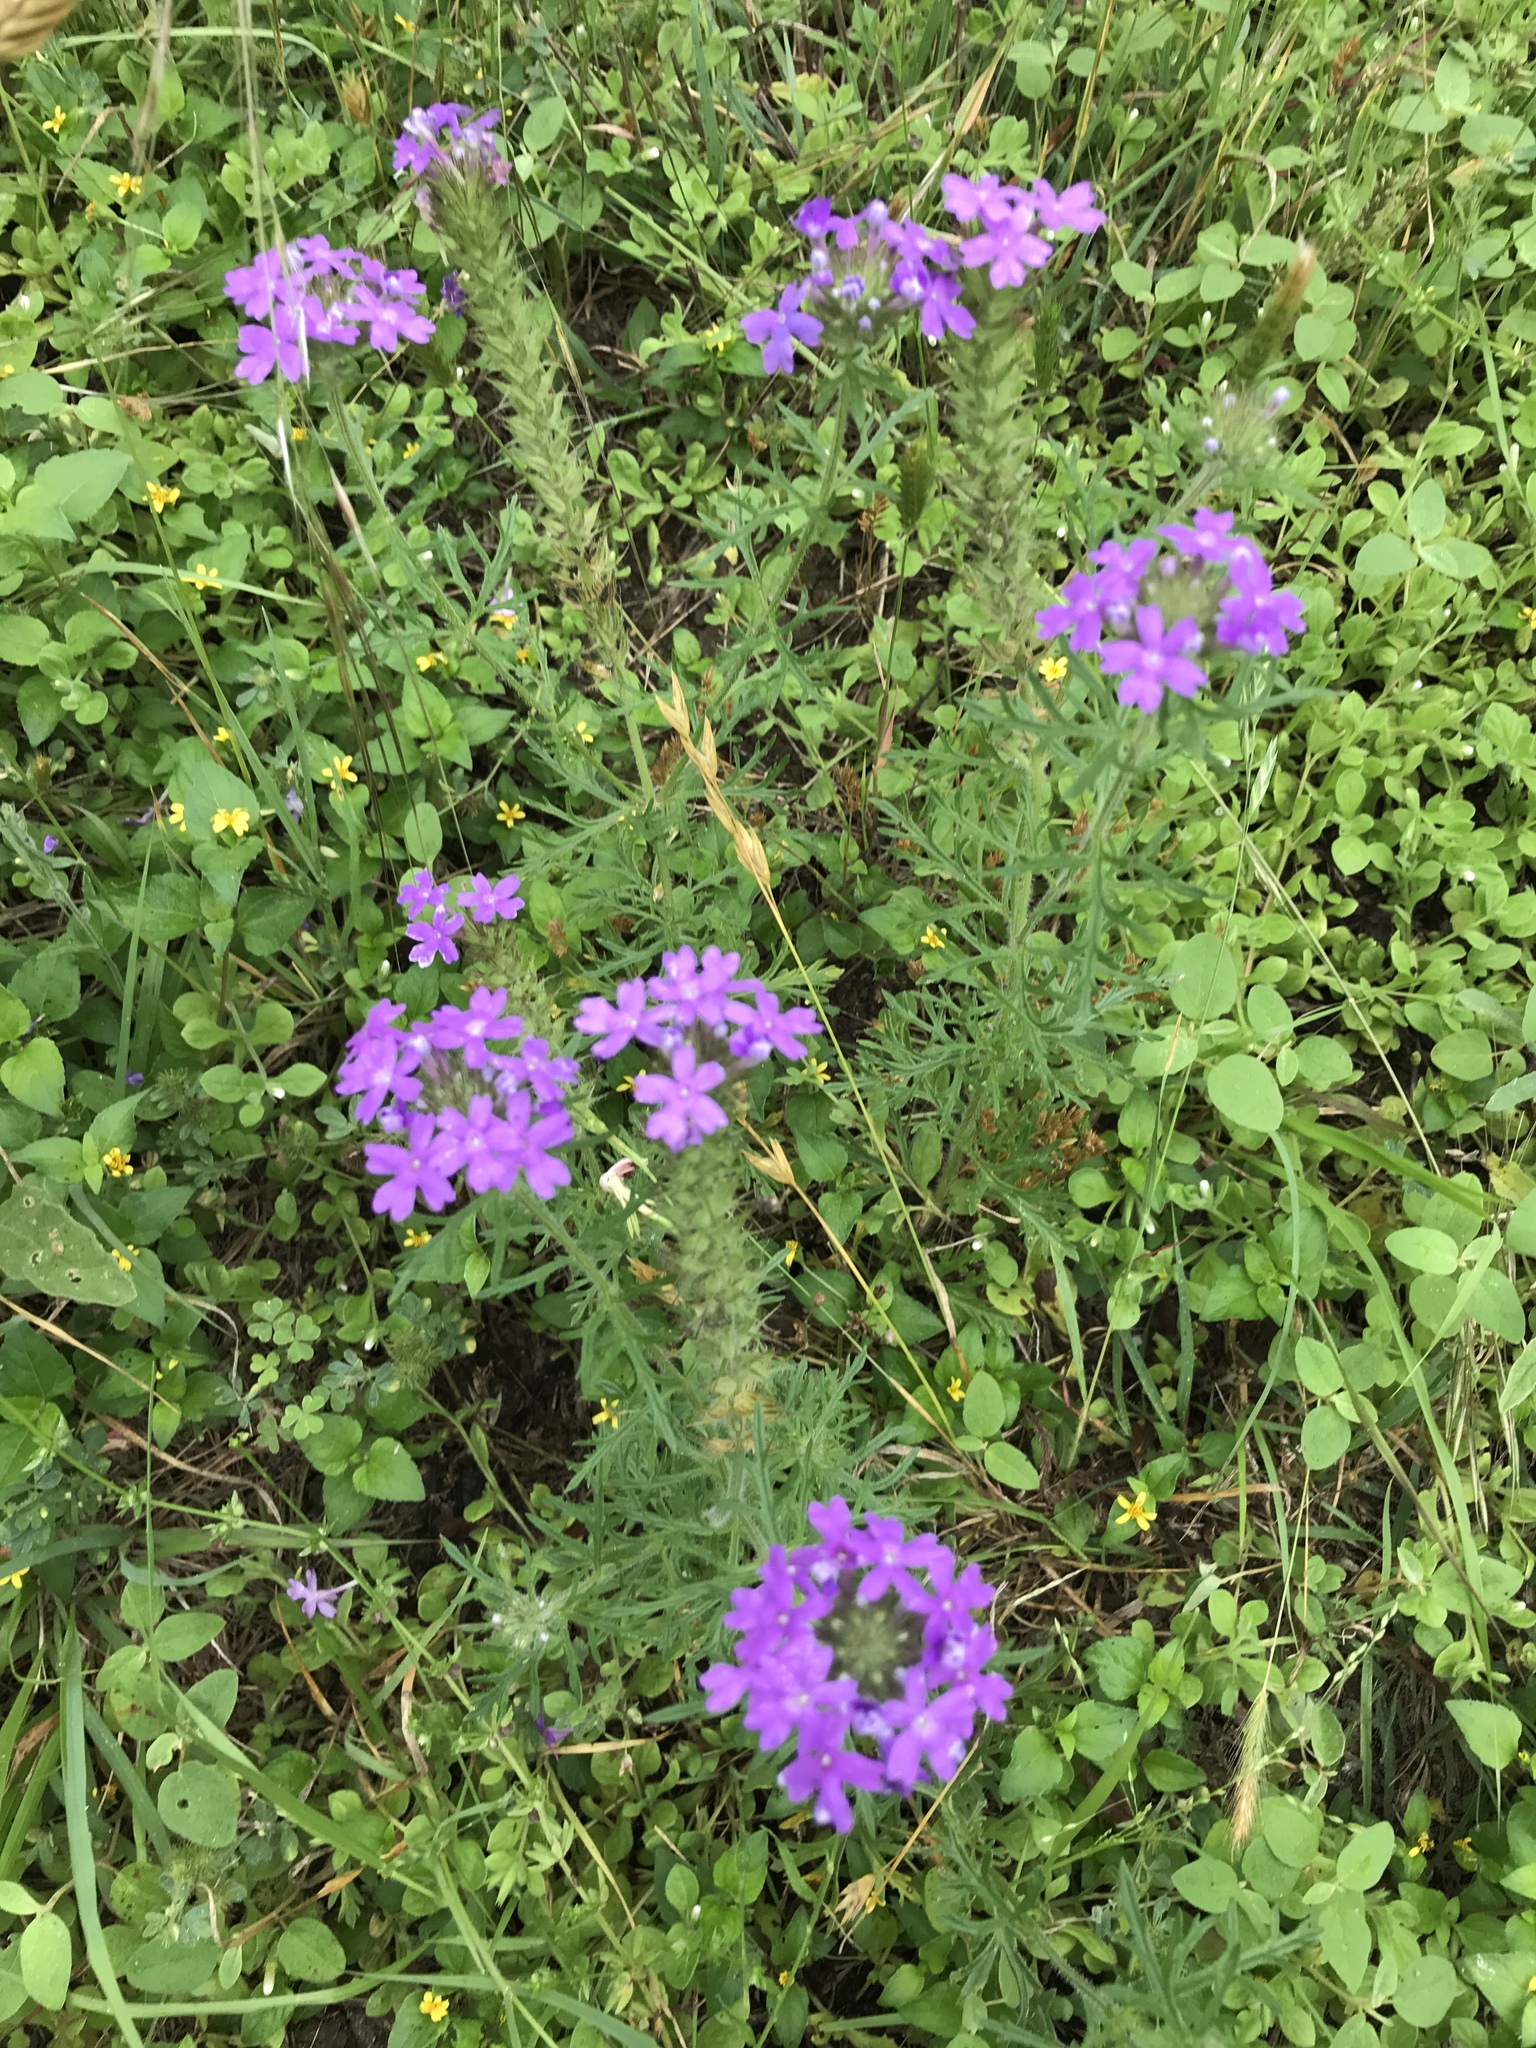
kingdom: Plantae
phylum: Tracheophyta
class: Magnoliopsida
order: Lamiales
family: Verbenaceae
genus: Verbena
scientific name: Verbena bipinnatifida
